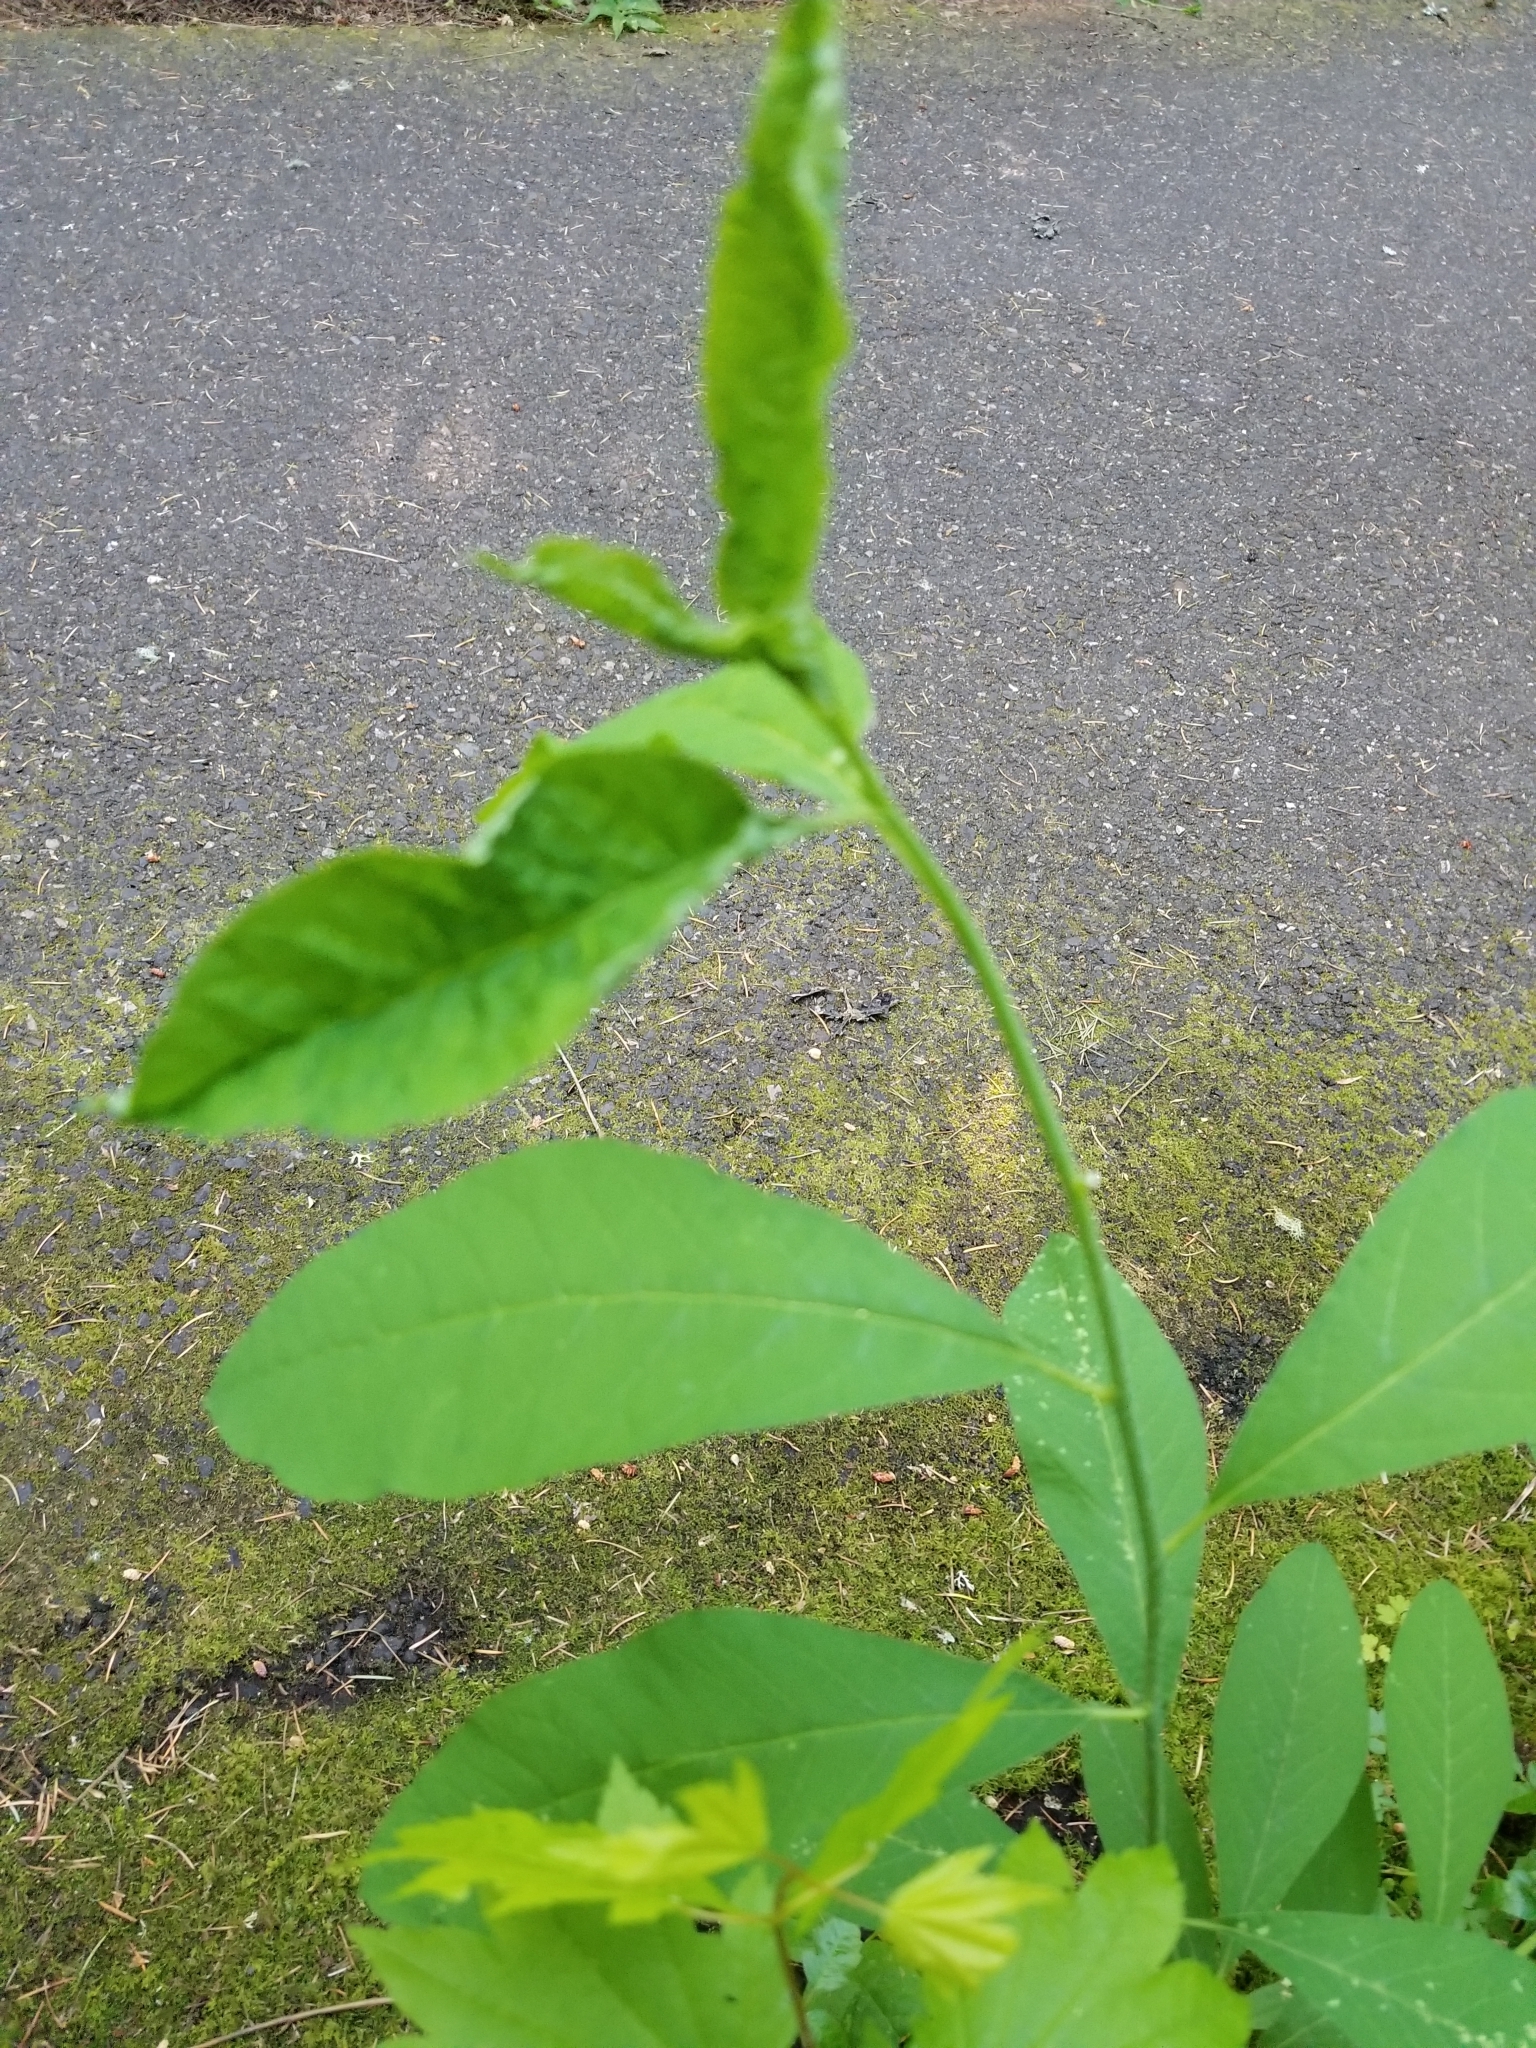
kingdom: Plantae
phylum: Tracheophyta
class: Magnoliopsida
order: Rosales
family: Rosaceae
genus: Oemleria
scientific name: Oemleria cerasiformis
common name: Osoberry
